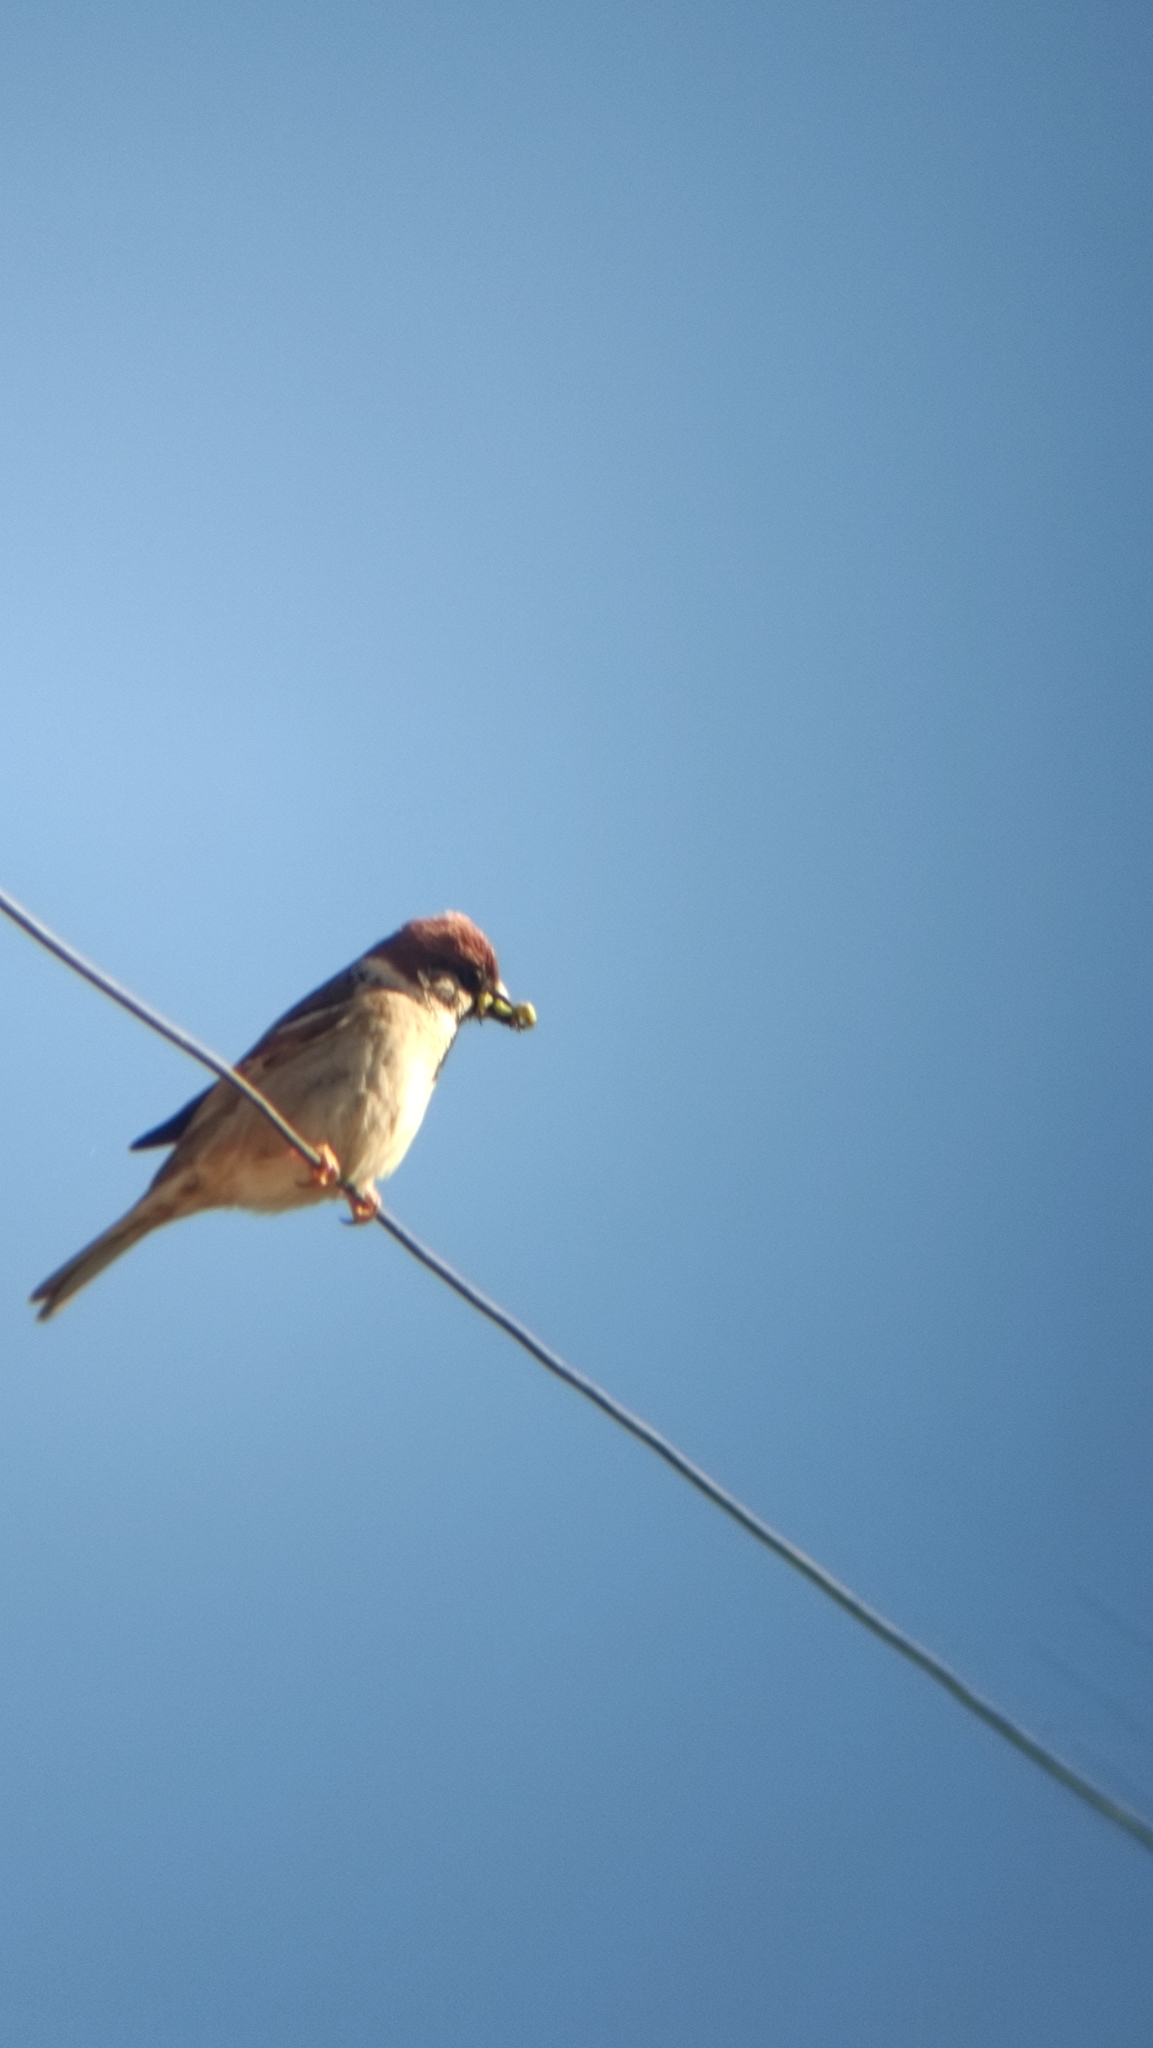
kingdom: Protozoa
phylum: Metamonada
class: Trichomonadea
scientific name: Trichomonadea
